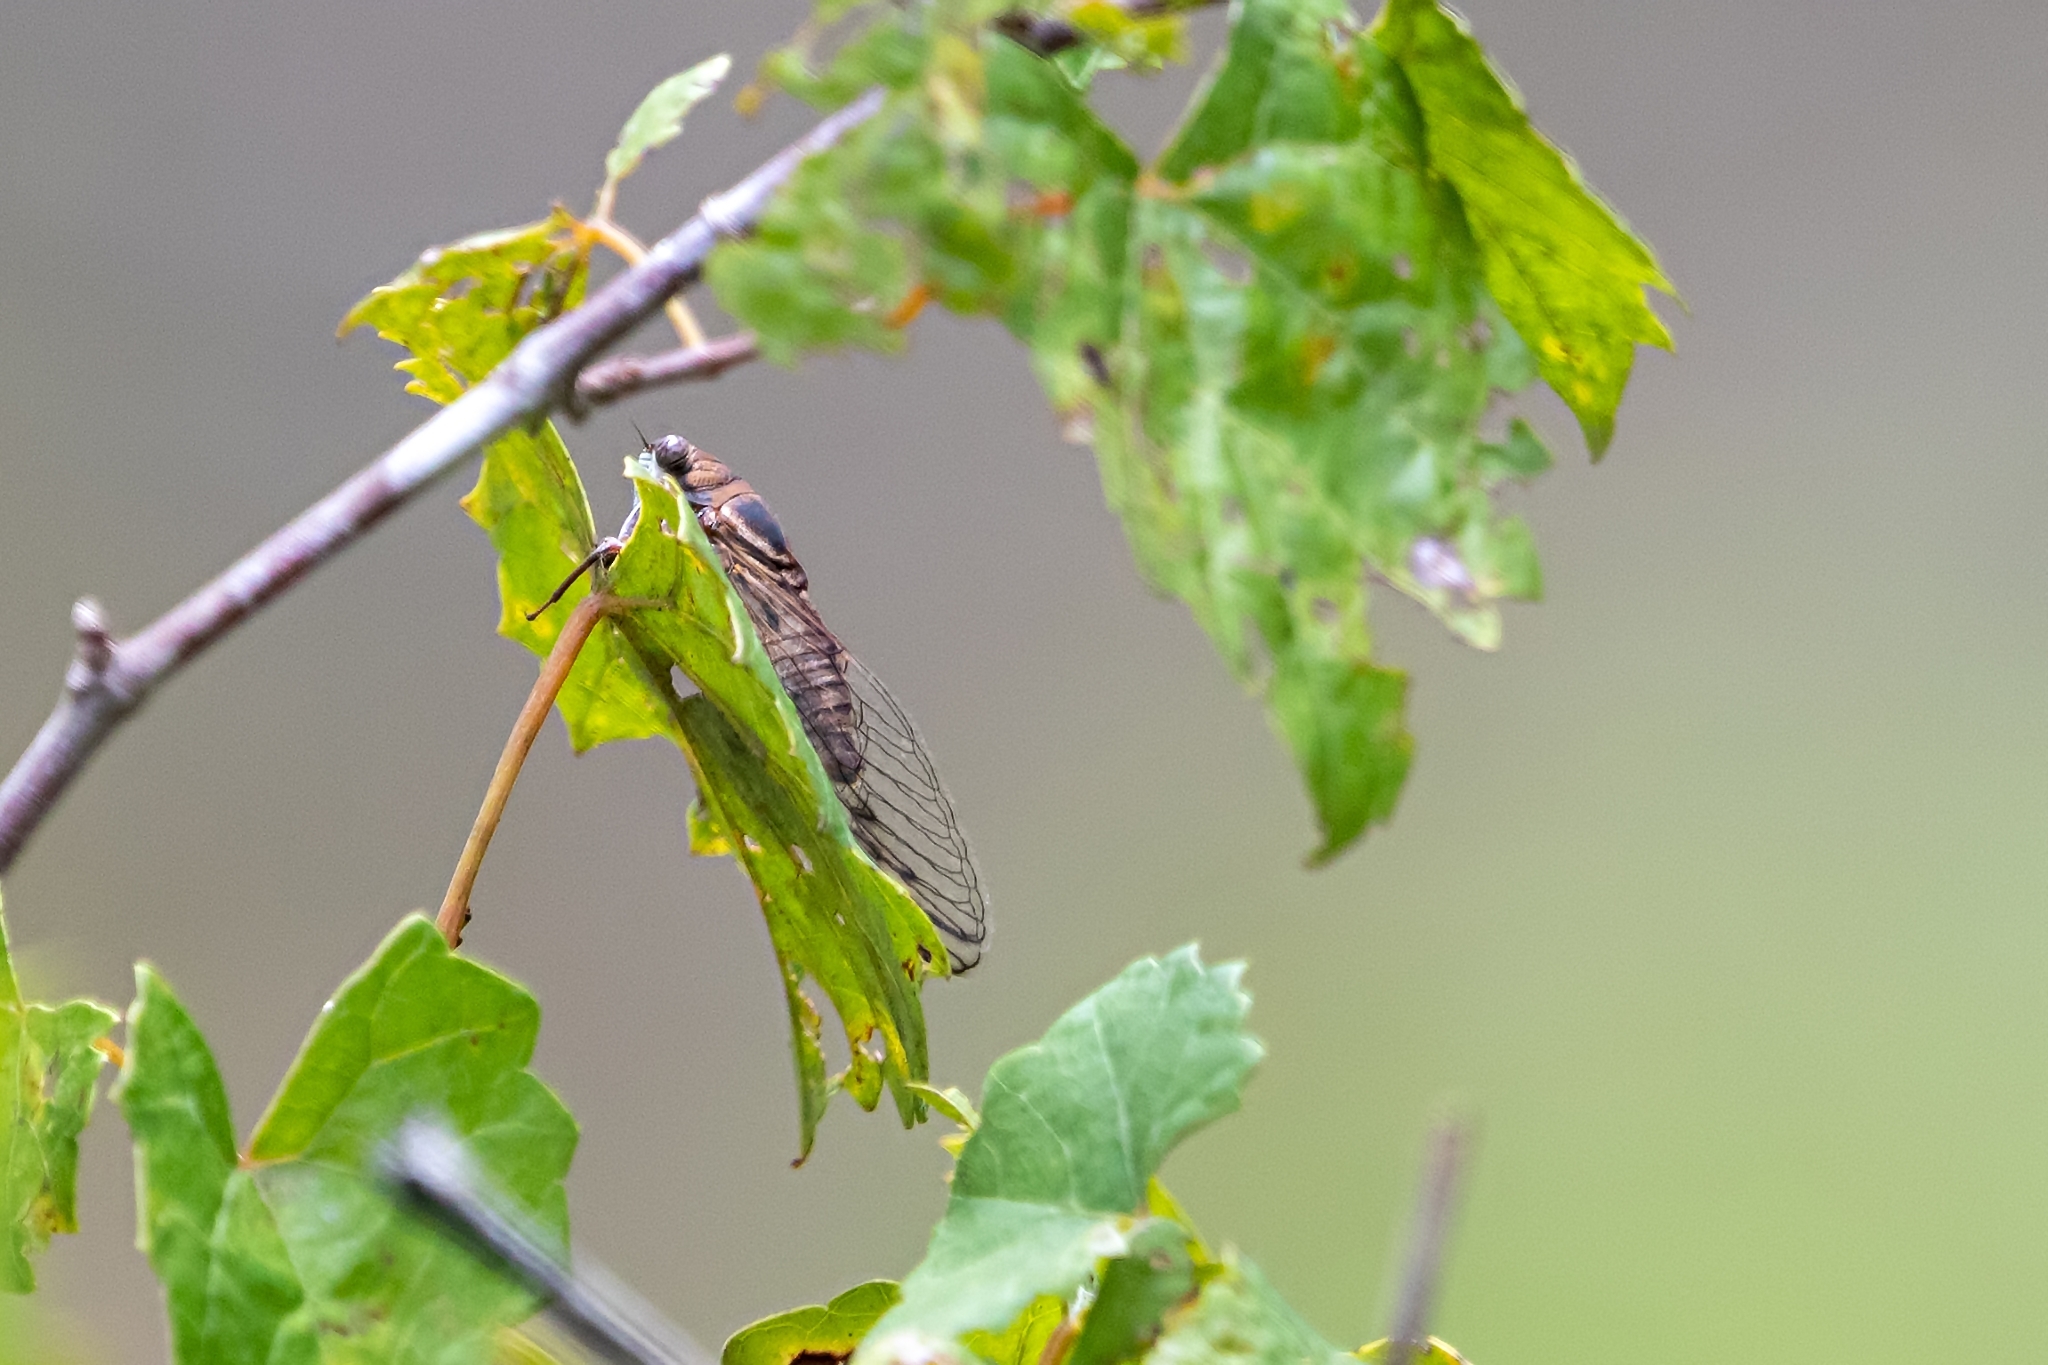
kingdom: Animalia
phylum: Arthropoda
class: Insecta
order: Hemiptera
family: Cicadidae
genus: Diceroprocta
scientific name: Diceroprocta olympusa
